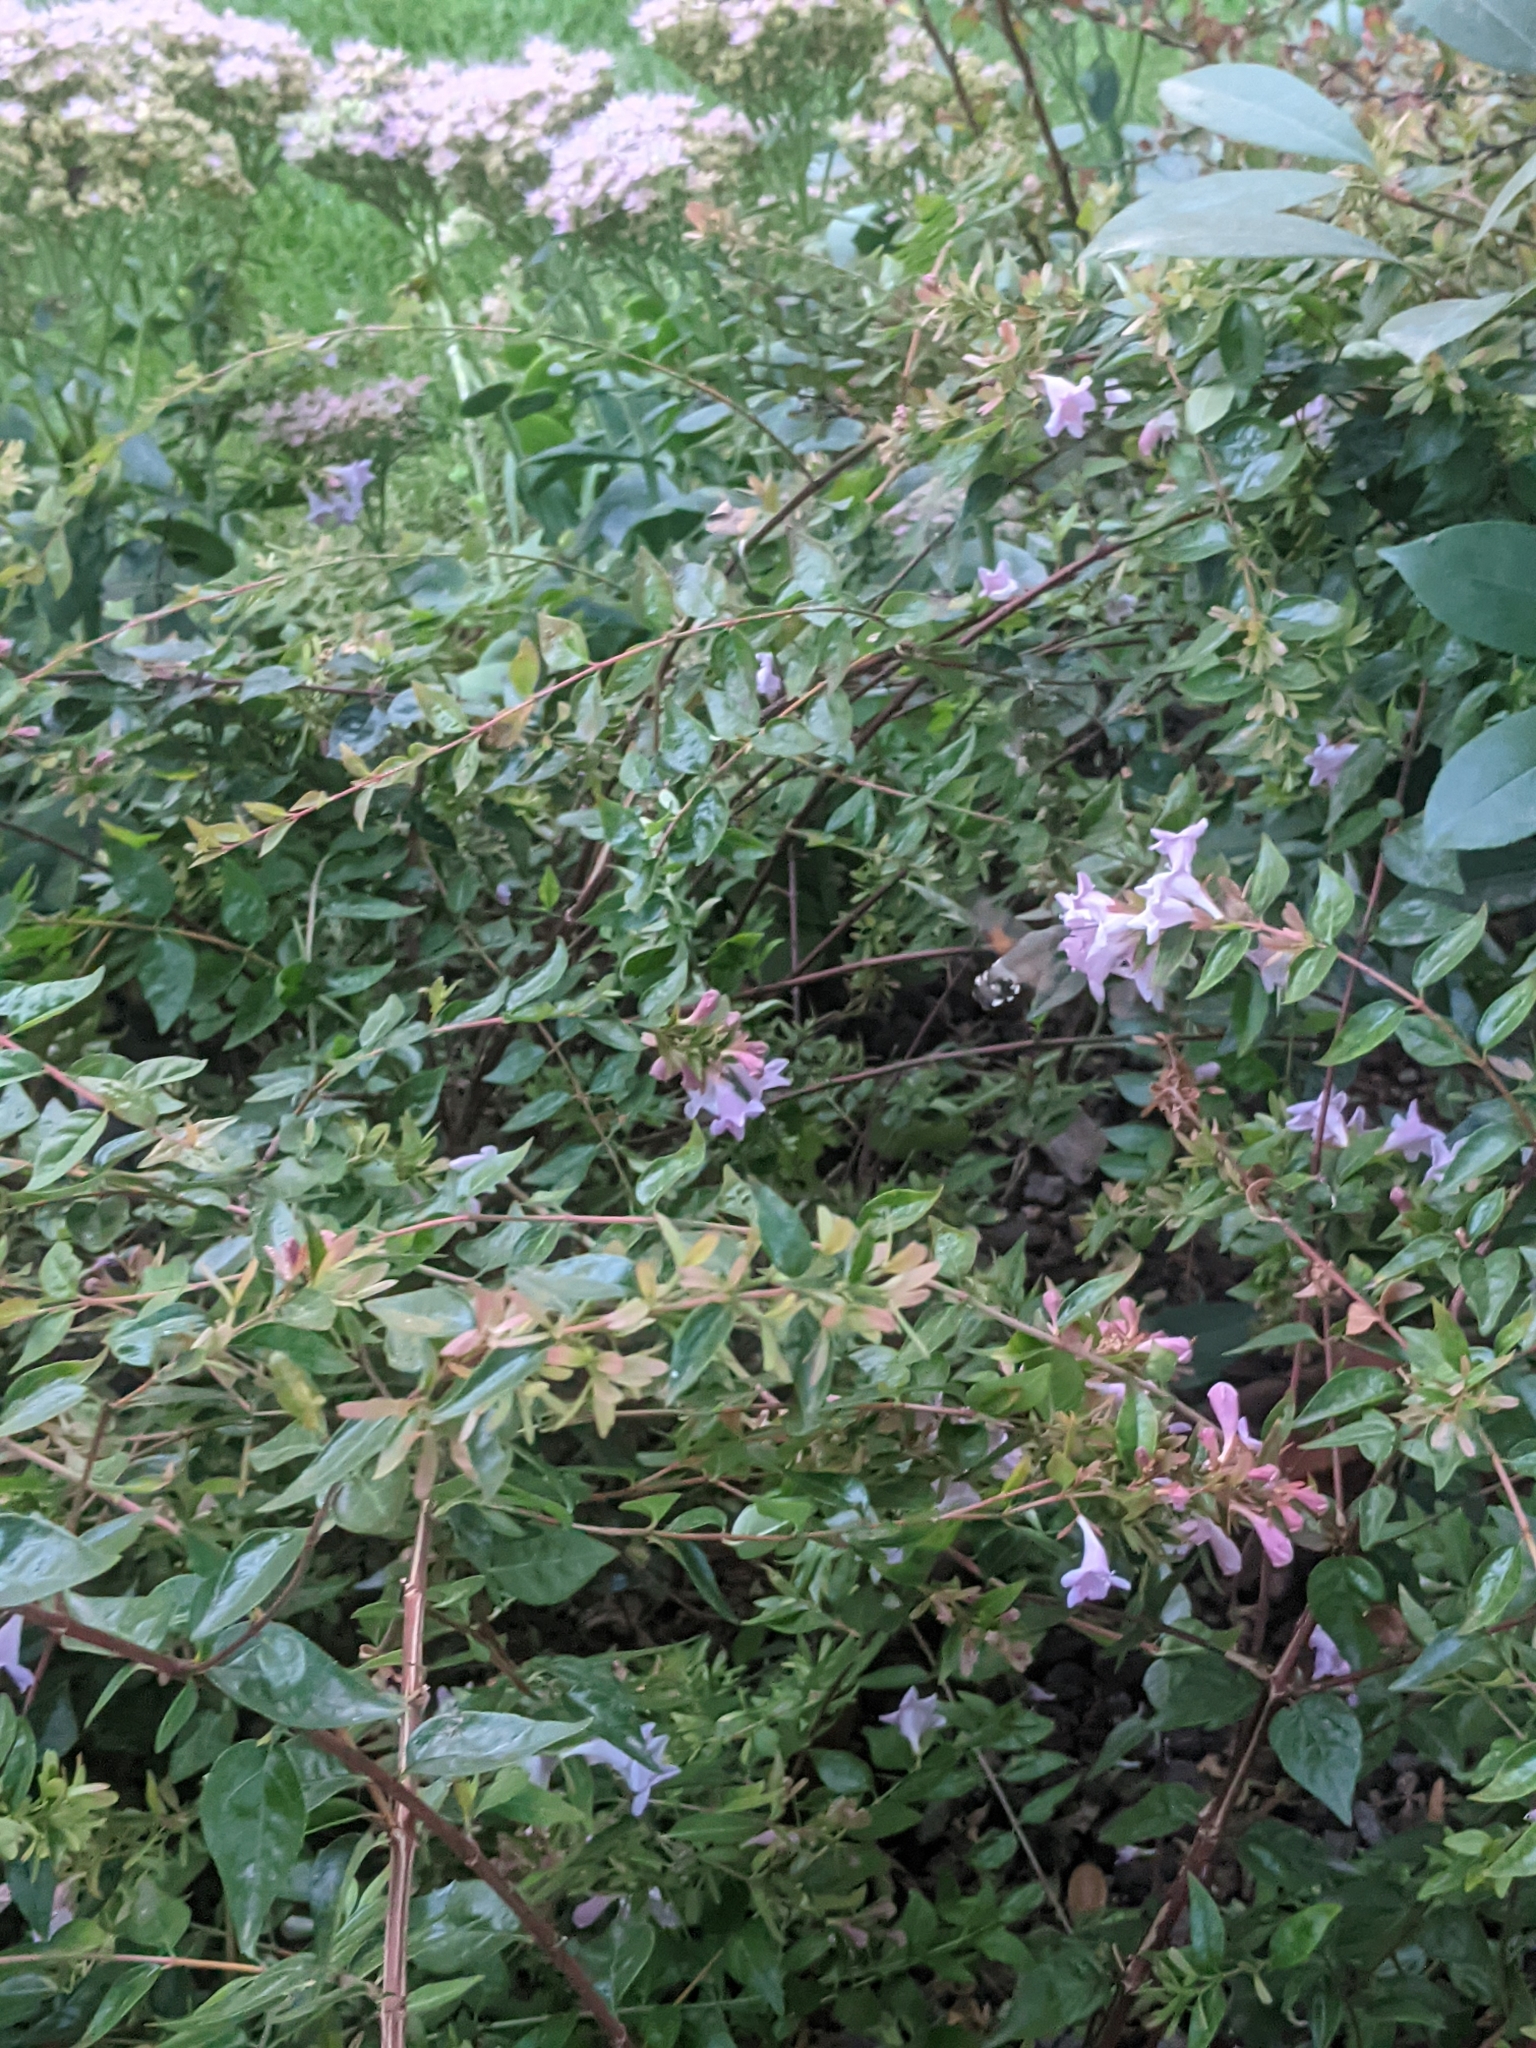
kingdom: Animalia
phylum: Arthropoda
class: Insecta
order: Lepidoptera
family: Sphingidae
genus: Macroglossum
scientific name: Macroglossum stellatarum
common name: Humming-bird hawk-moth
